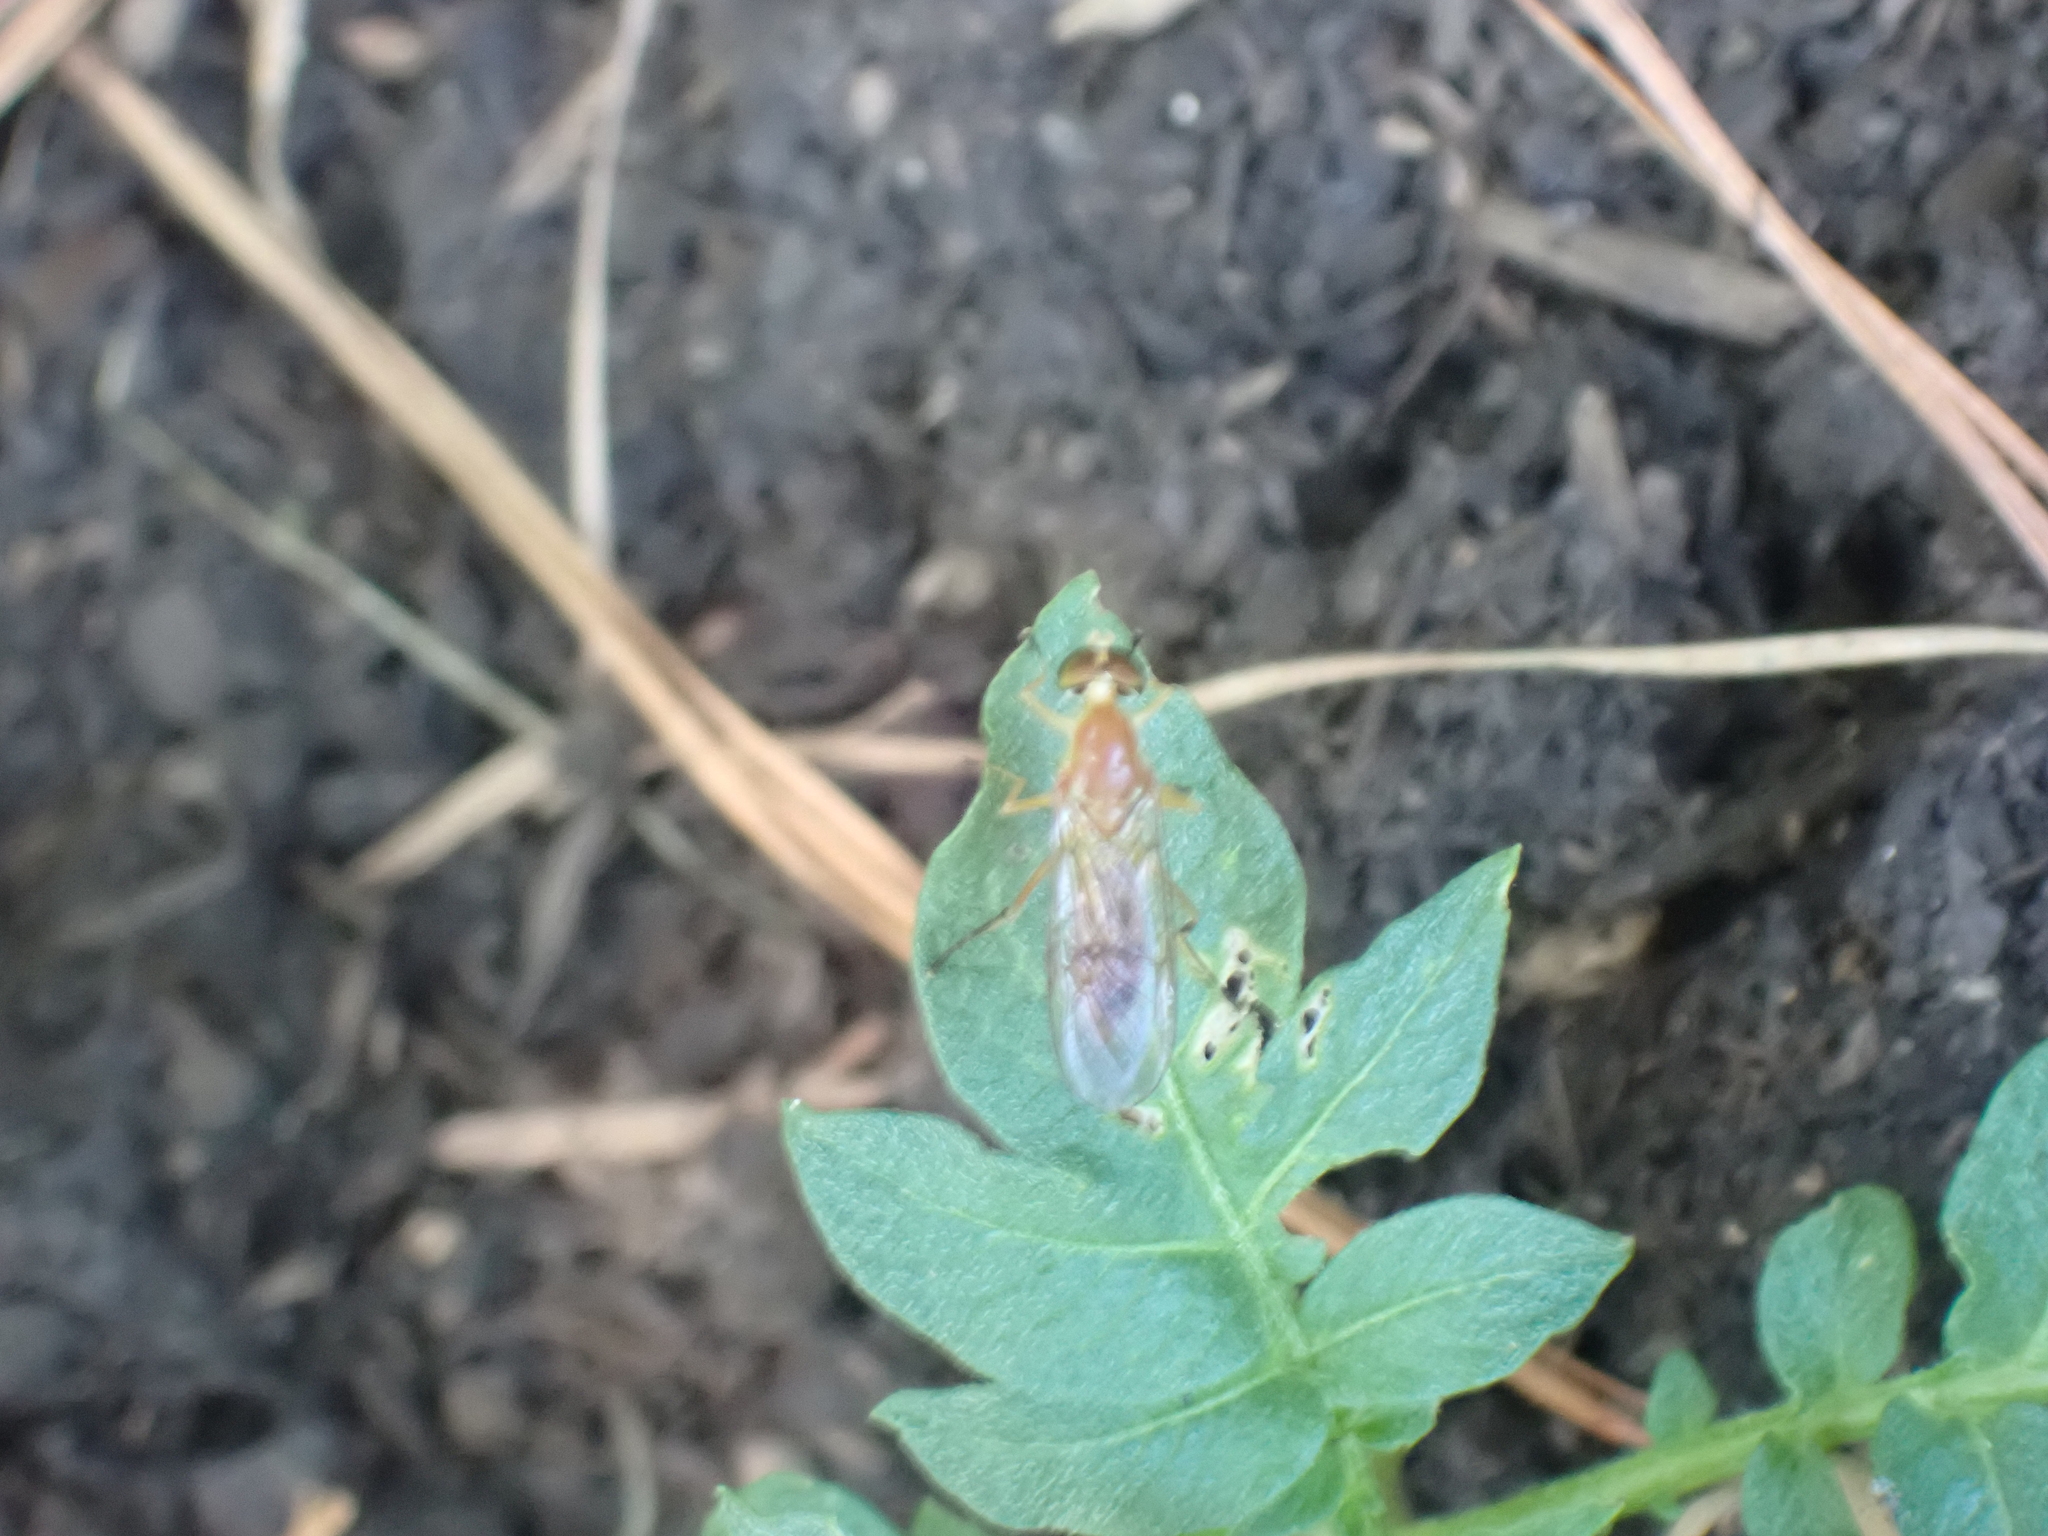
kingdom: Animalia
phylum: Arthropoda
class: Insecta
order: Diptera
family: Stratiomyidae
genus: Ptecticus
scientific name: Ptecticus trivittatus
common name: Compost fly
